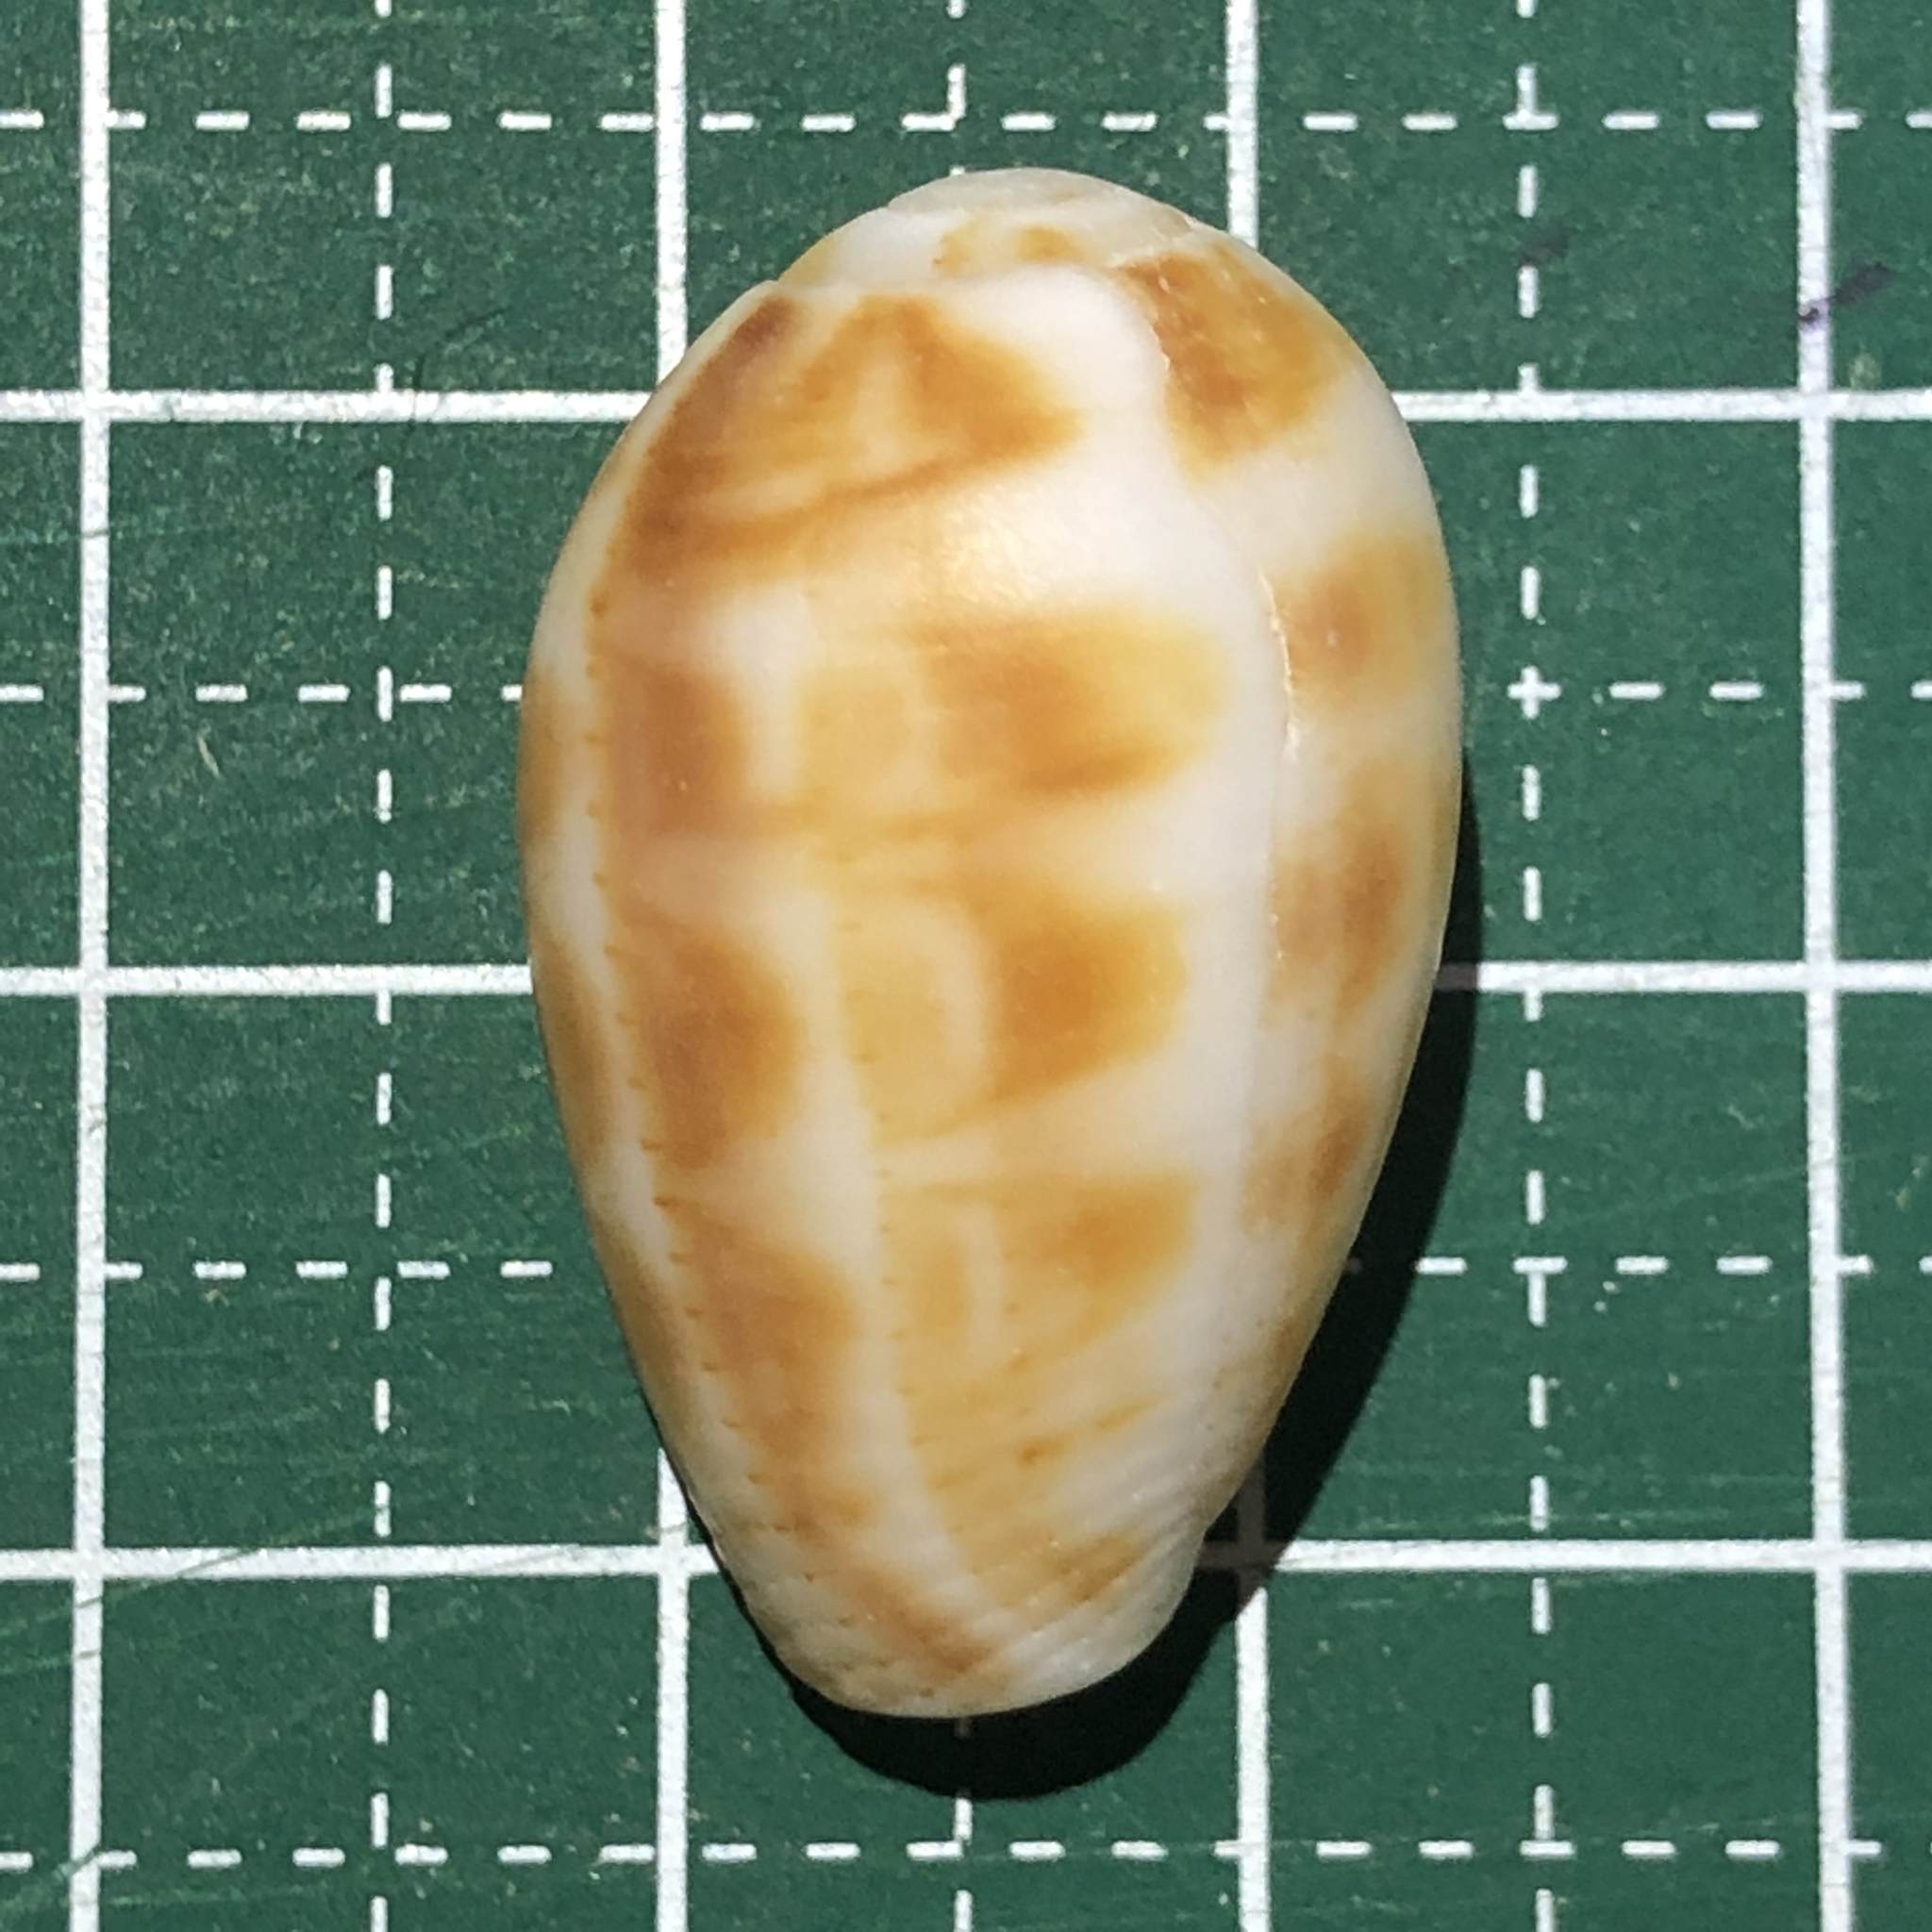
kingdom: Animalia
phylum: Mollusca
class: Gastropoda
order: Neogastropoda
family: Mitridae
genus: Pterygia
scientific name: Pterygia dactylus
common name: Finger miter
